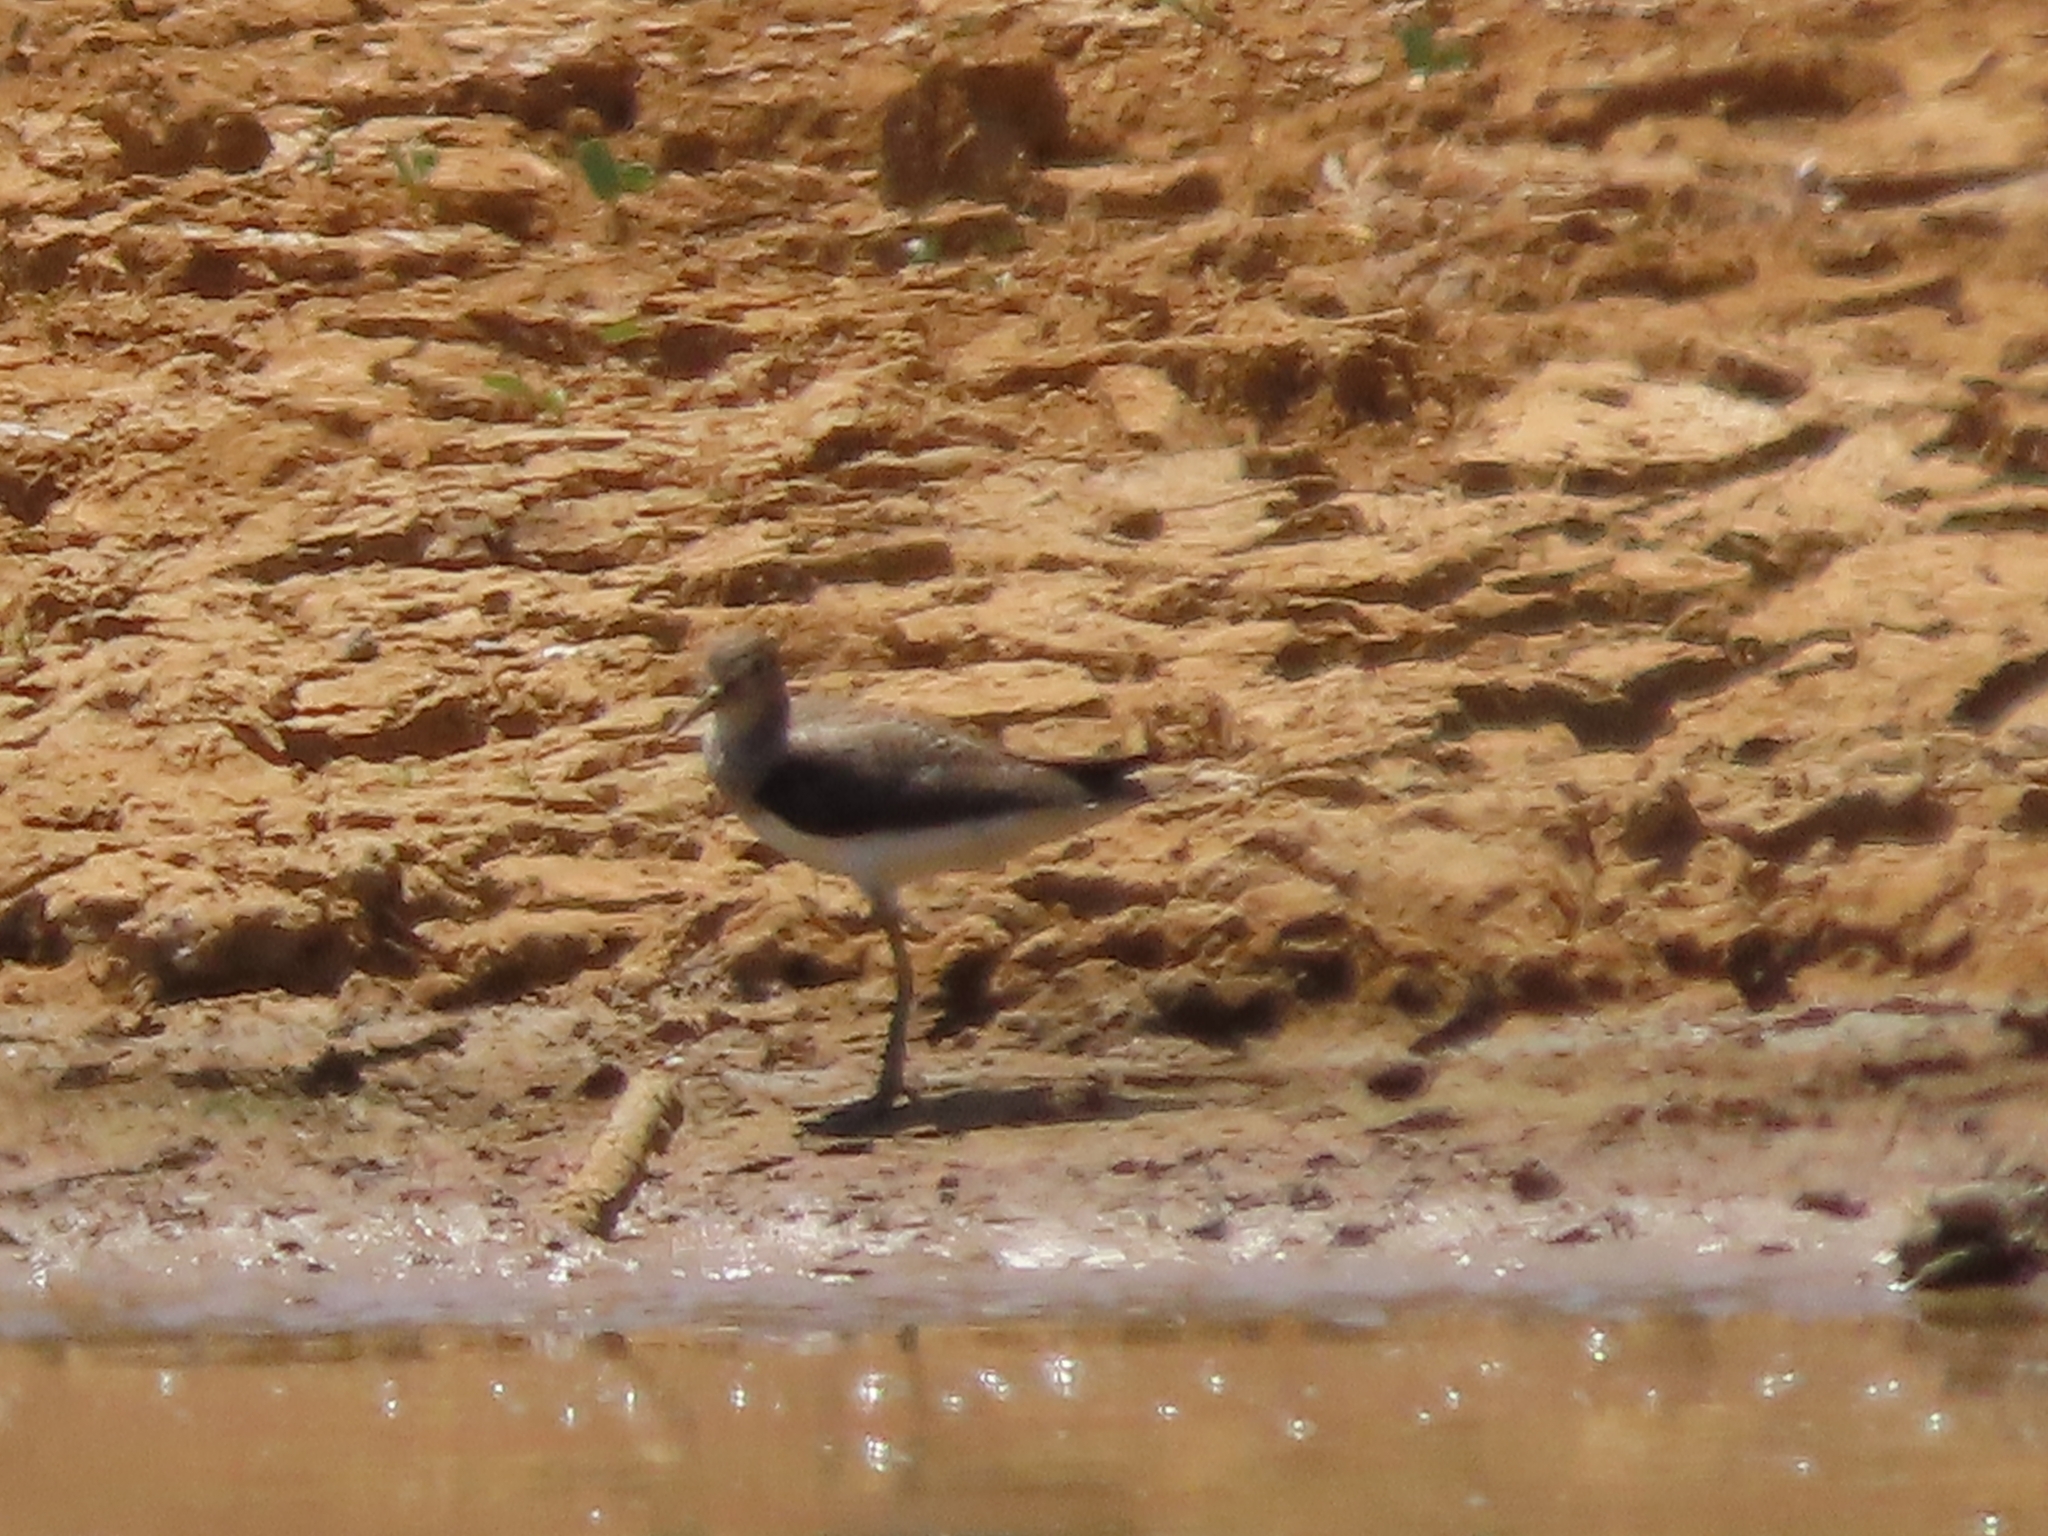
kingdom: Animalia
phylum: Chordata
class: Aves
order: Charadriiformes
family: Scolopacidae
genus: Tringa
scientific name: Tringa solitaria
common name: Solitary sandpiper
